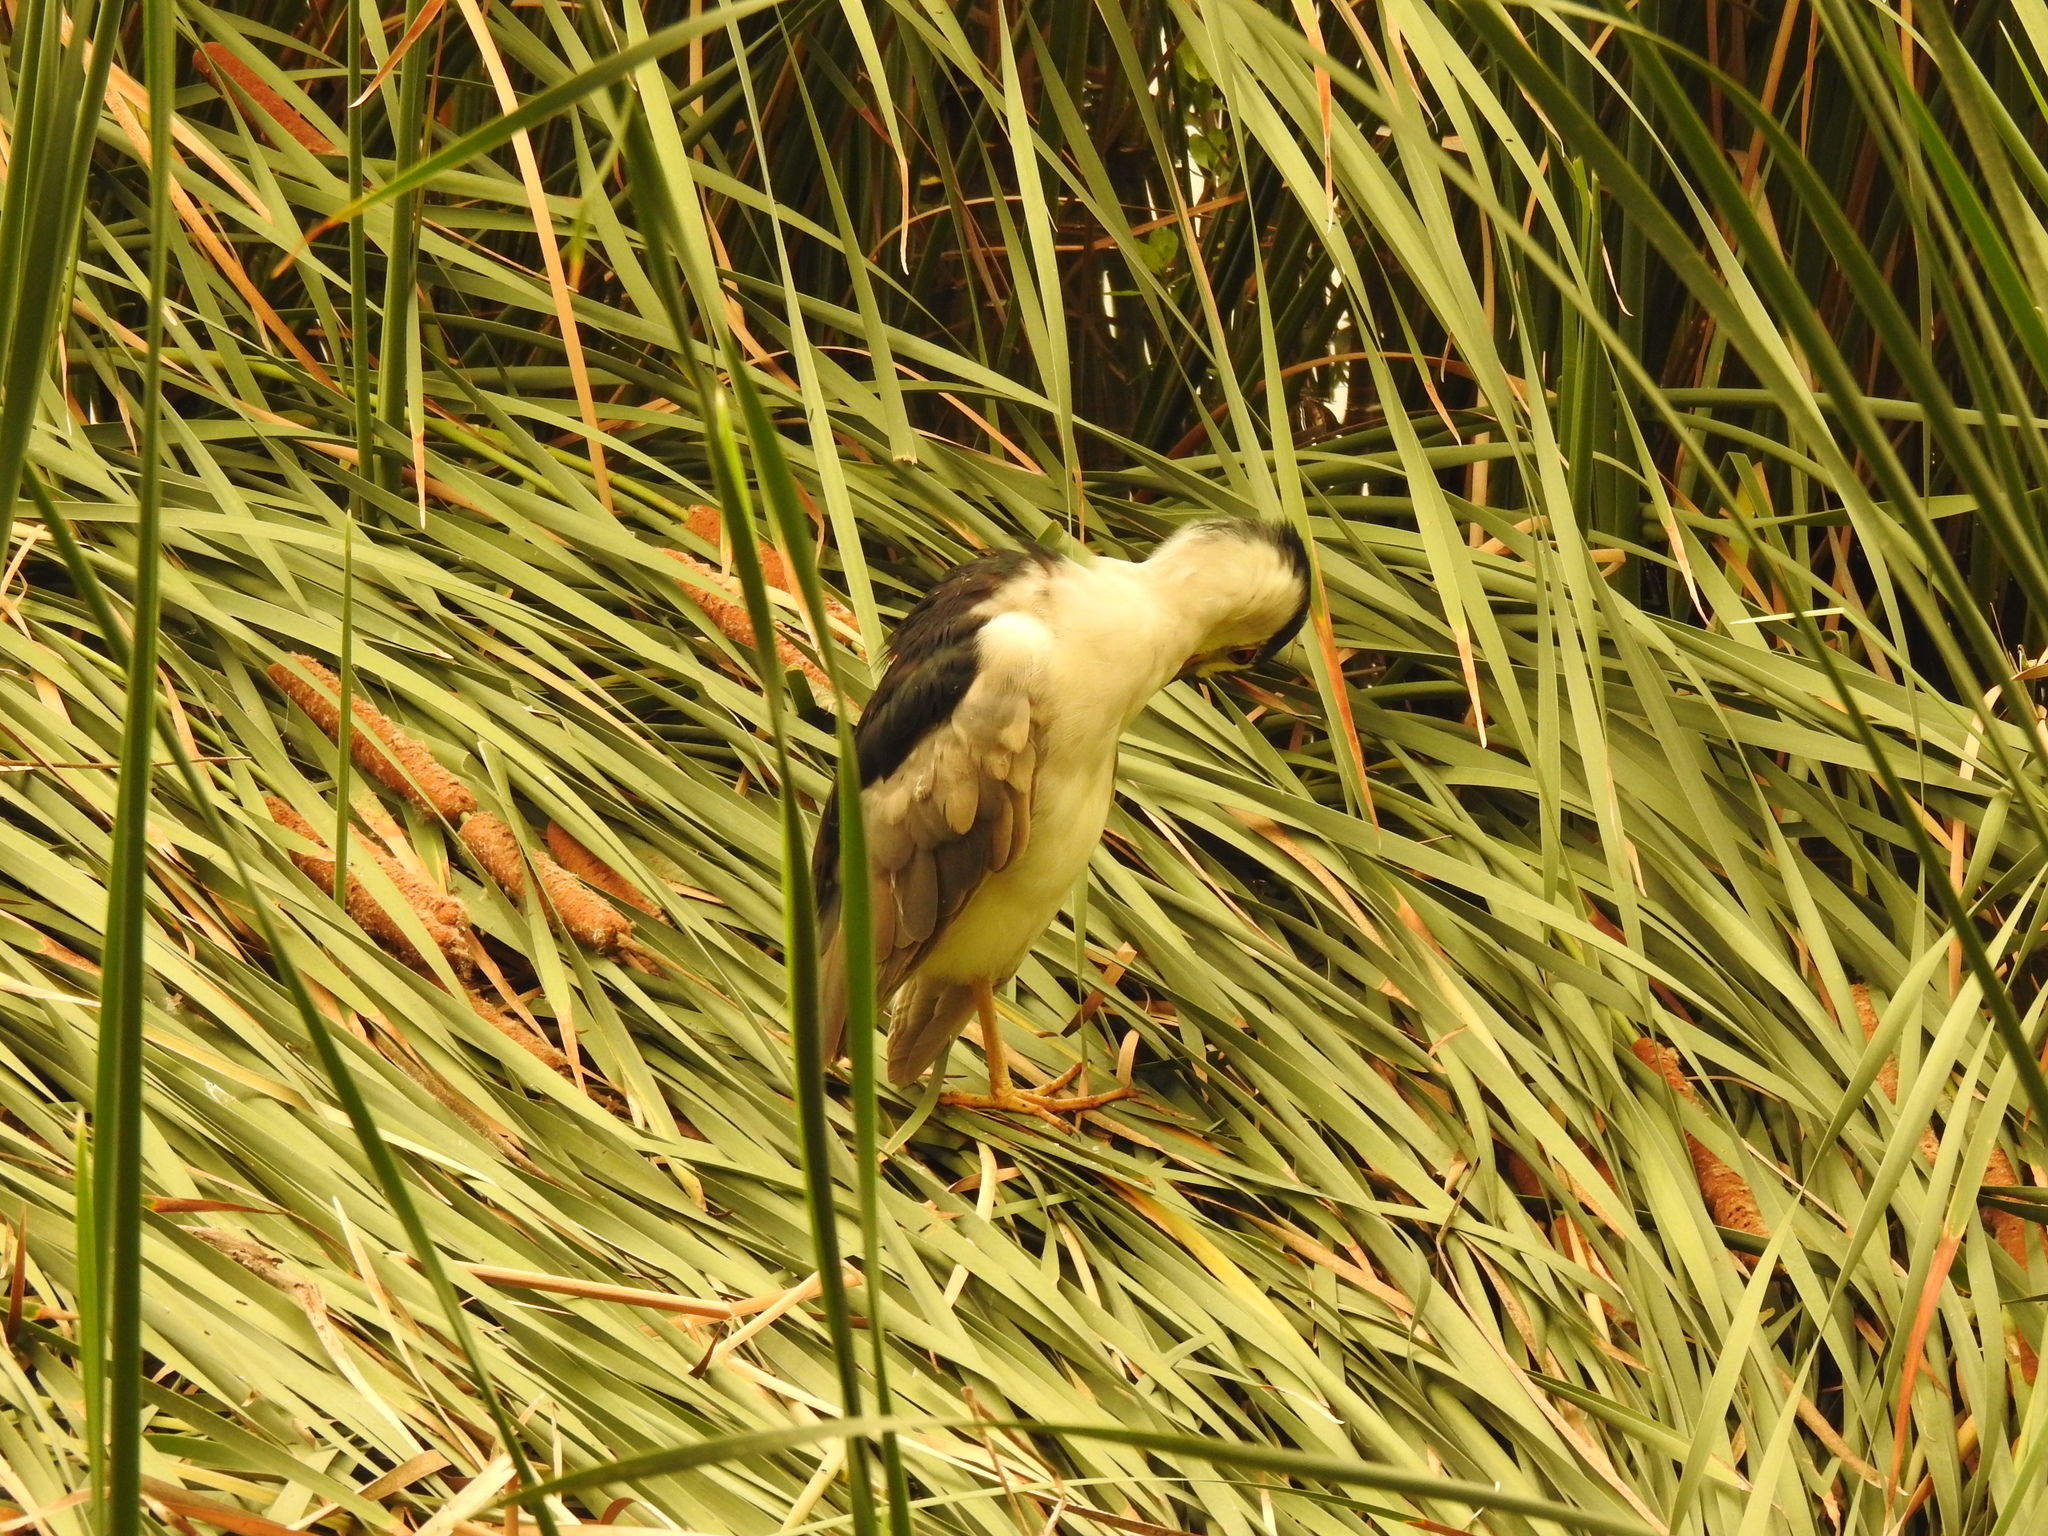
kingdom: Animalia
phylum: Chordata
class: Aves
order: Pelecaniformes
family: Ardeidae
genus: Nycticorax
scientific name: Nycticorax nycticorax
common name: Black-crowned night heron
